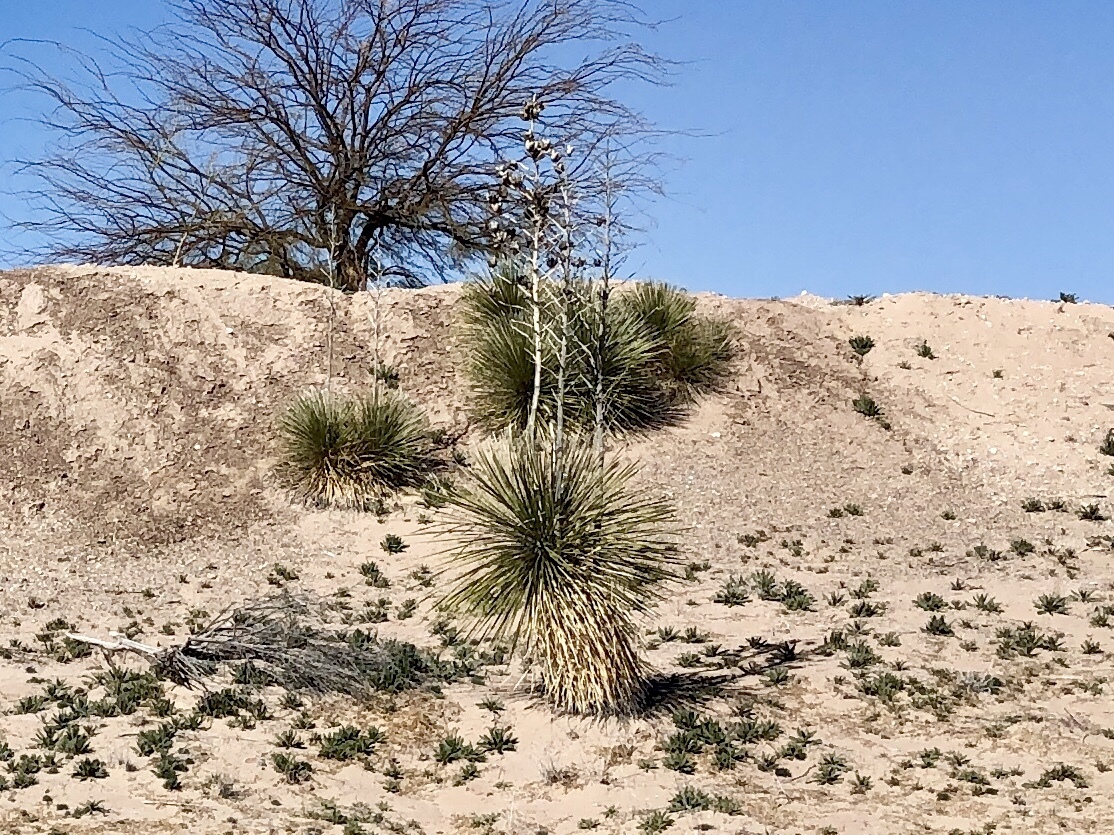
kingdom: Plantae
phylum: Tracheophyta
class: Liliopsida
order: Asparagales
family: Asparagaceae
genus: Yucca
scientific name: Yucca elata
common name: Palmella
